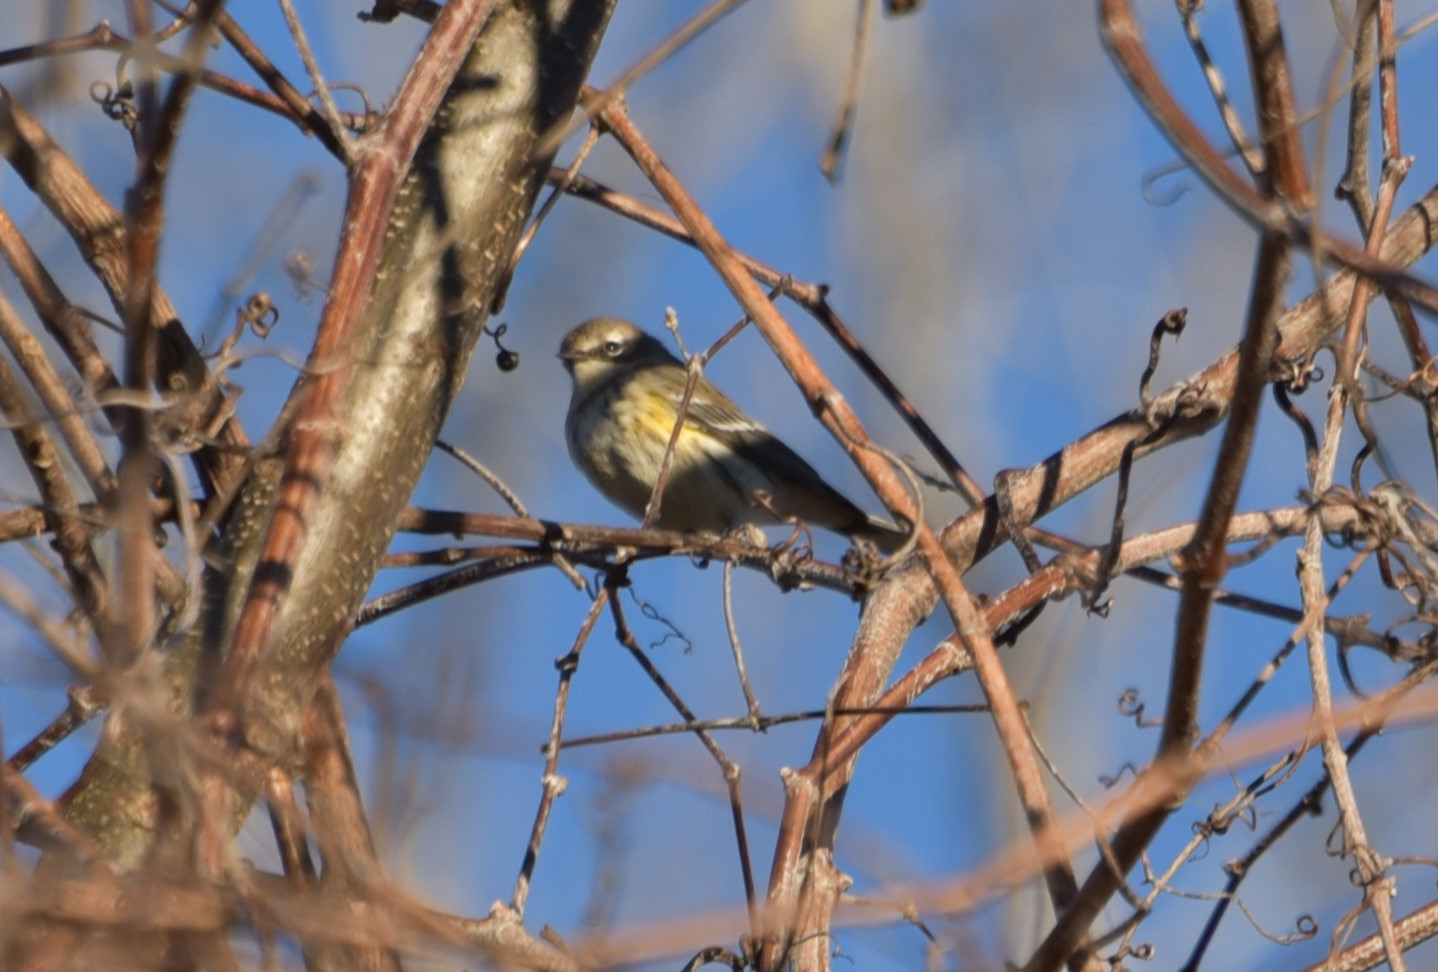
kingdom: Animalia
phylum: Chordata
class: Aves
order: Passeriformes
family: Parulidae
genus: Setophaga
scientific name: Setophaga coronata
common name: Myrtle warbler
